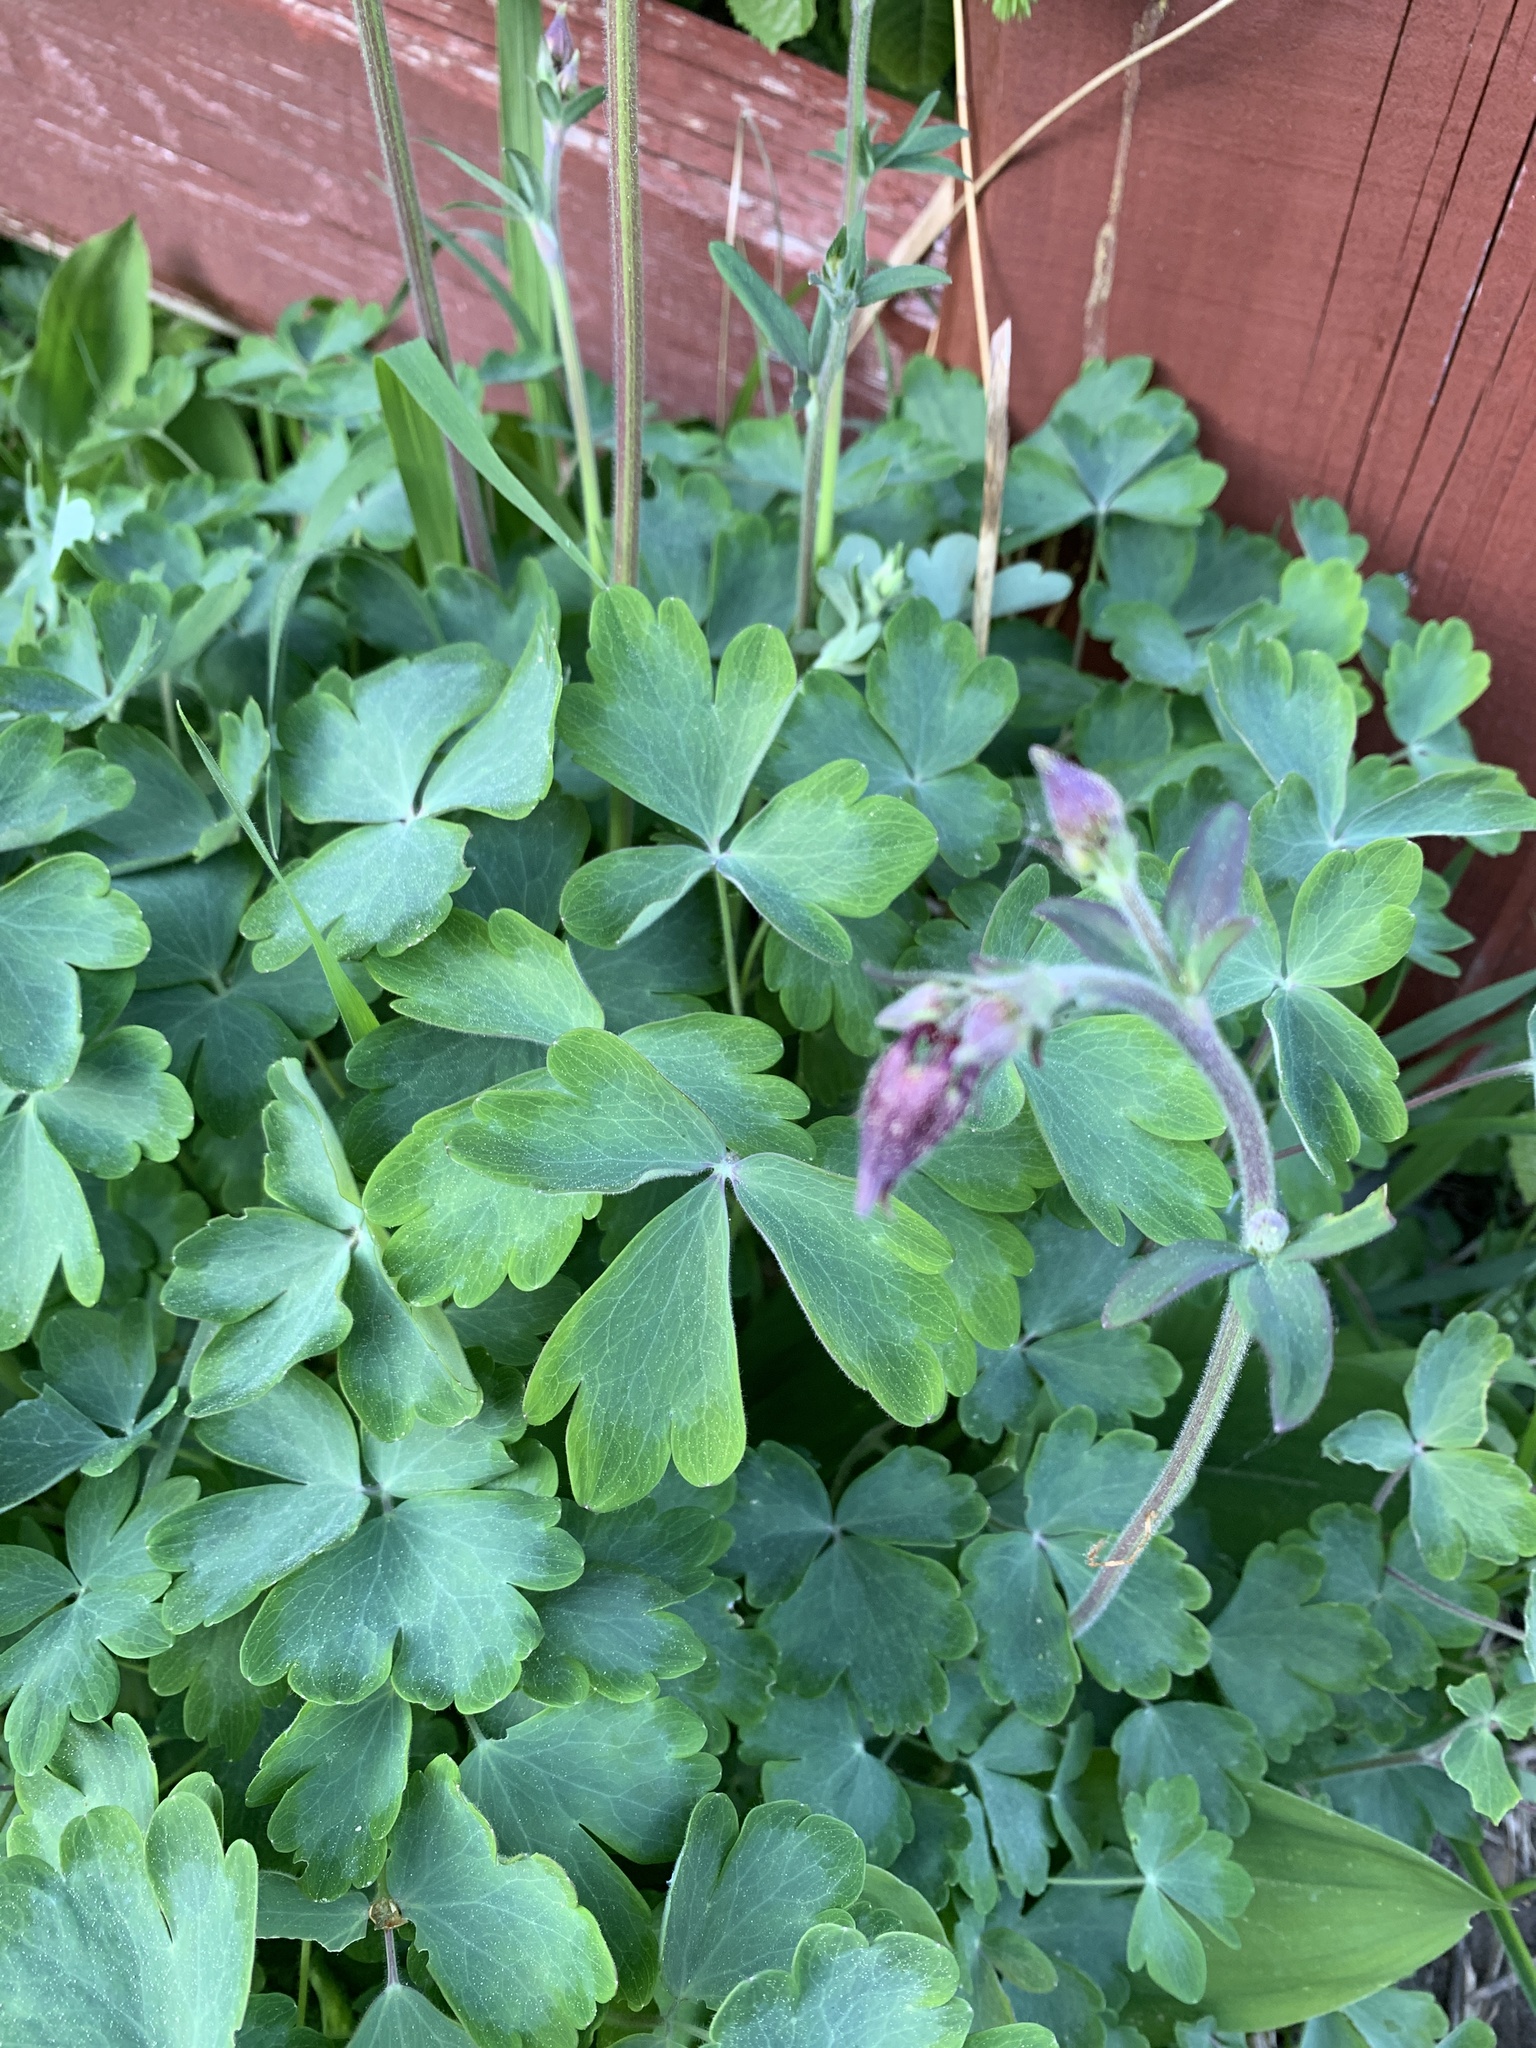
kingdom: Plantae
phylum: Tracheophyta
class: Magnoliopsida
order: Ranunculales
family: Ranunculaceae
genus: Aquilegia
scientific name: Aquilegia vulgaris
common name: Columbine
